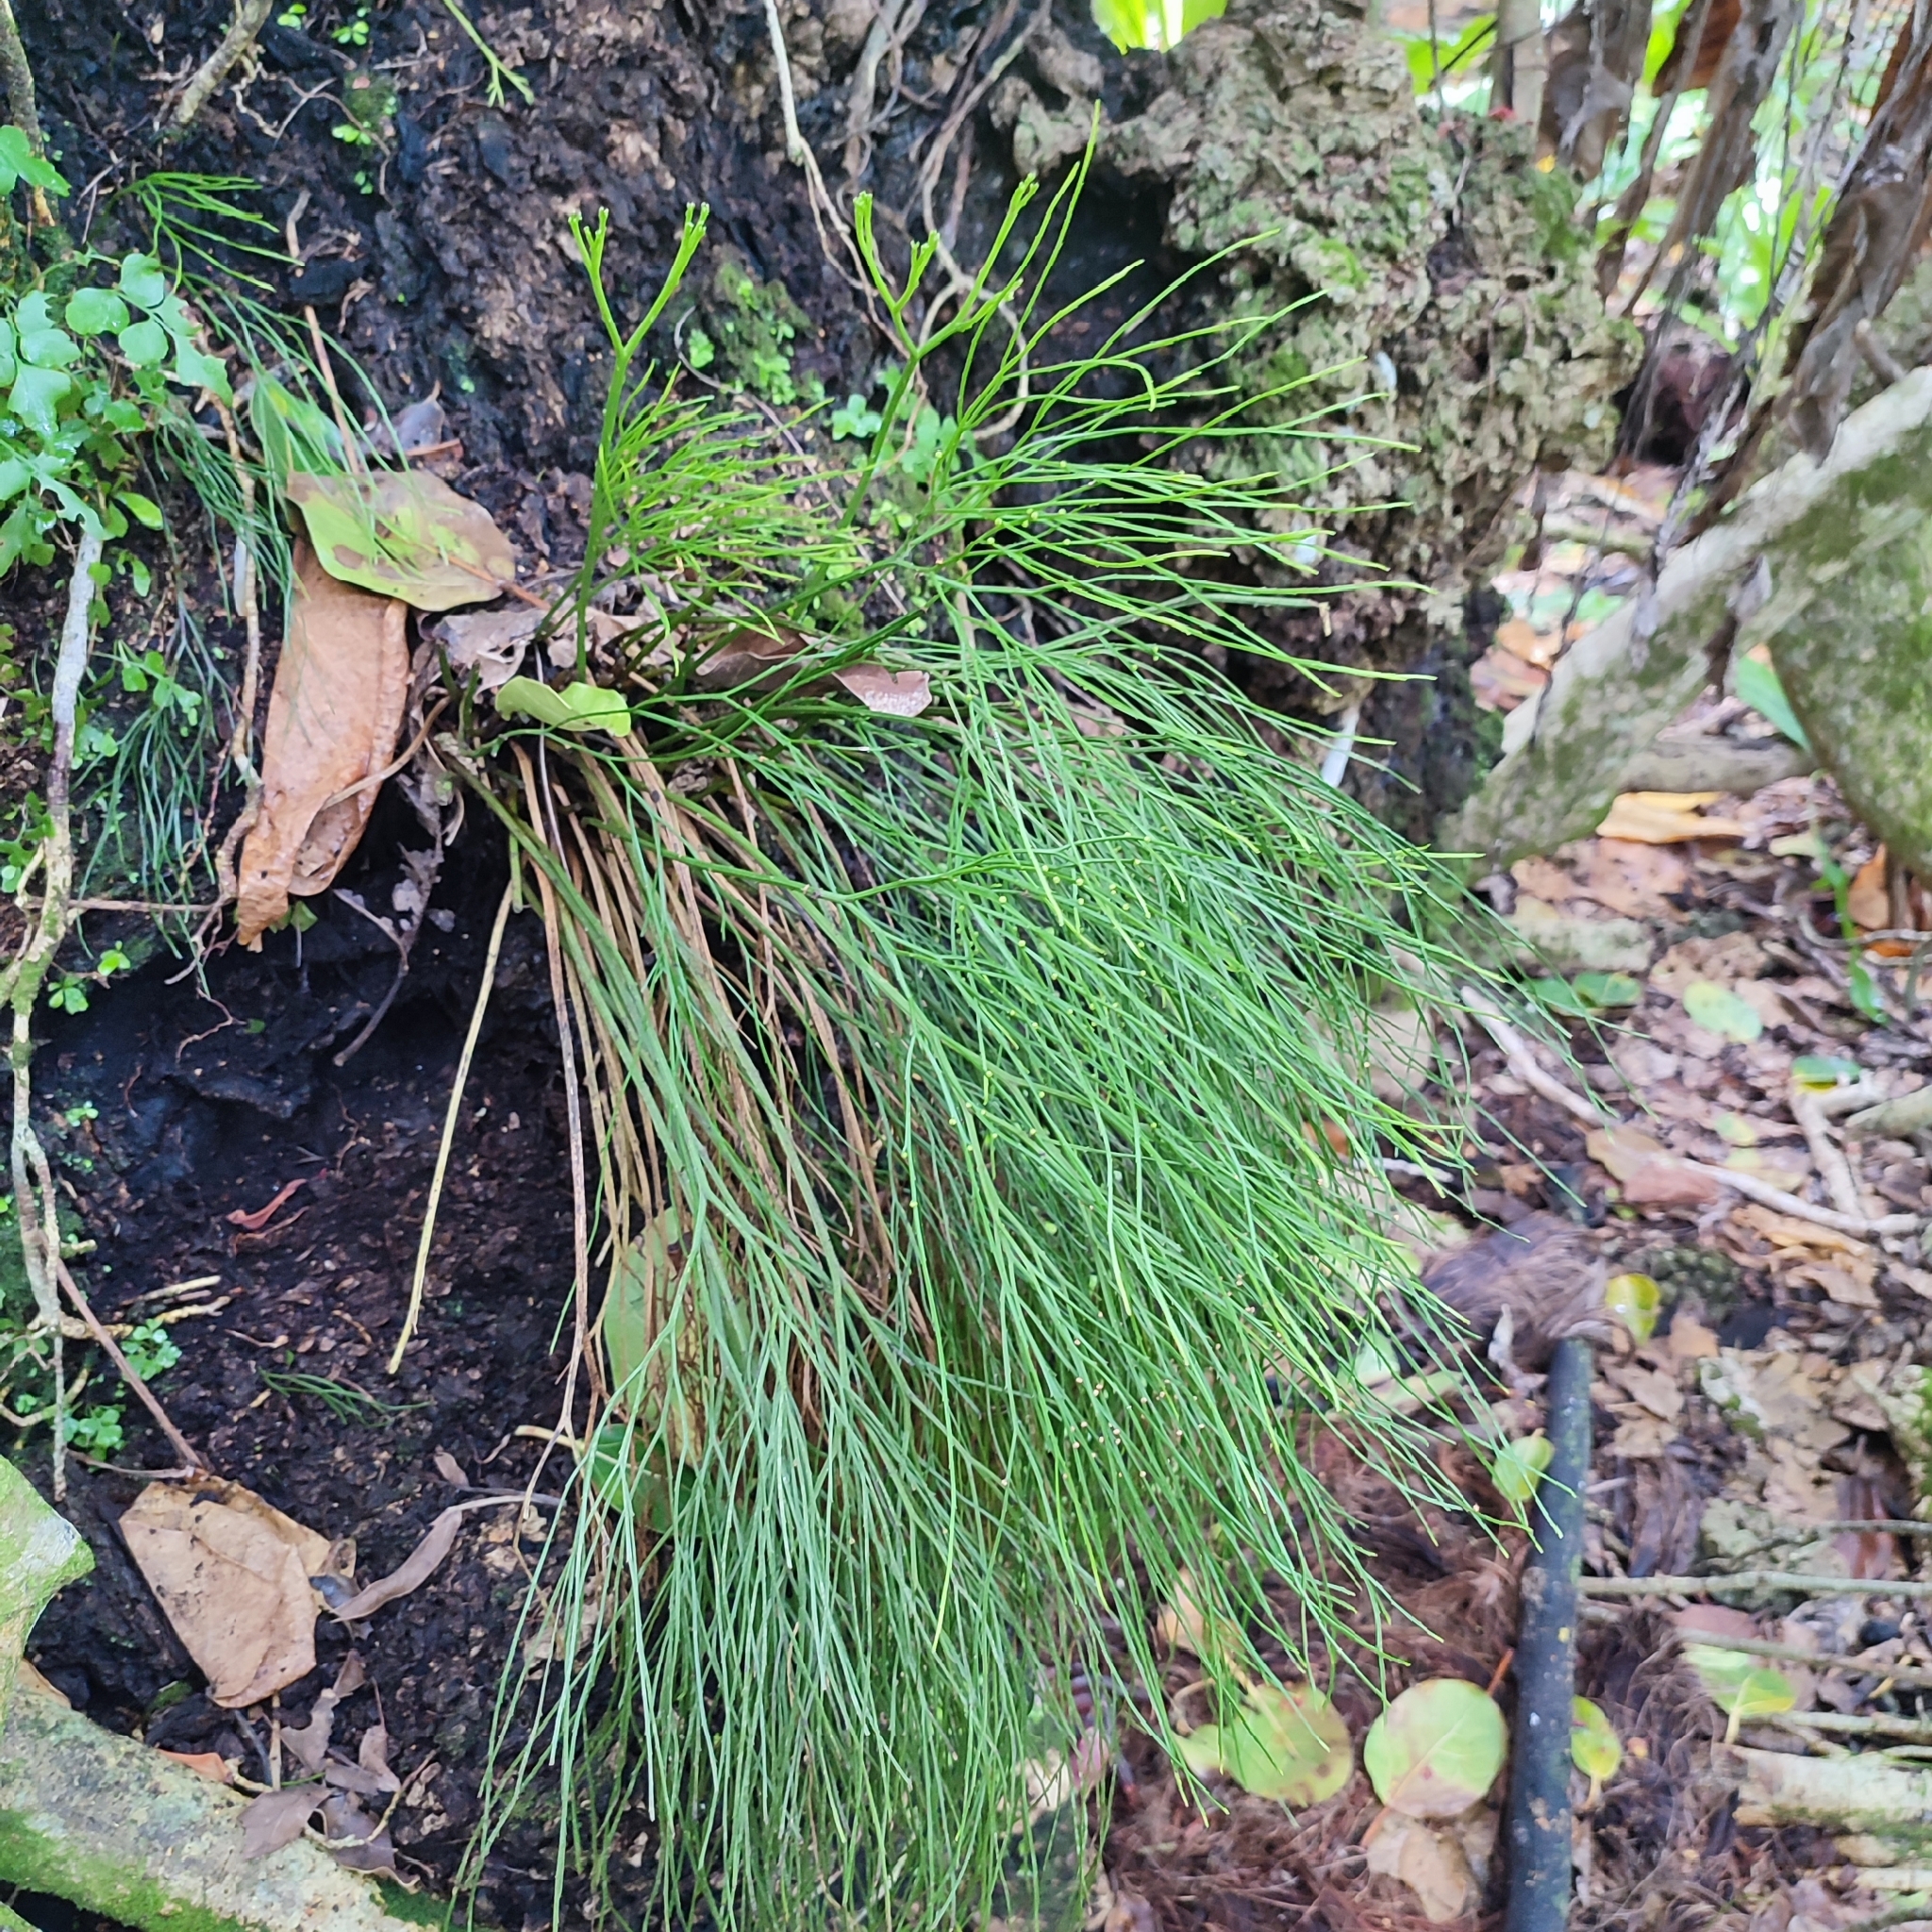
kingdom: Plantae
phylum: Tracheophyta
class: Polypodiopsida
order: Psilotales
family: Psilotaceae
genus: Psilotum
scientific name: Psilotum nudum
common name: Skeleton fork fern
